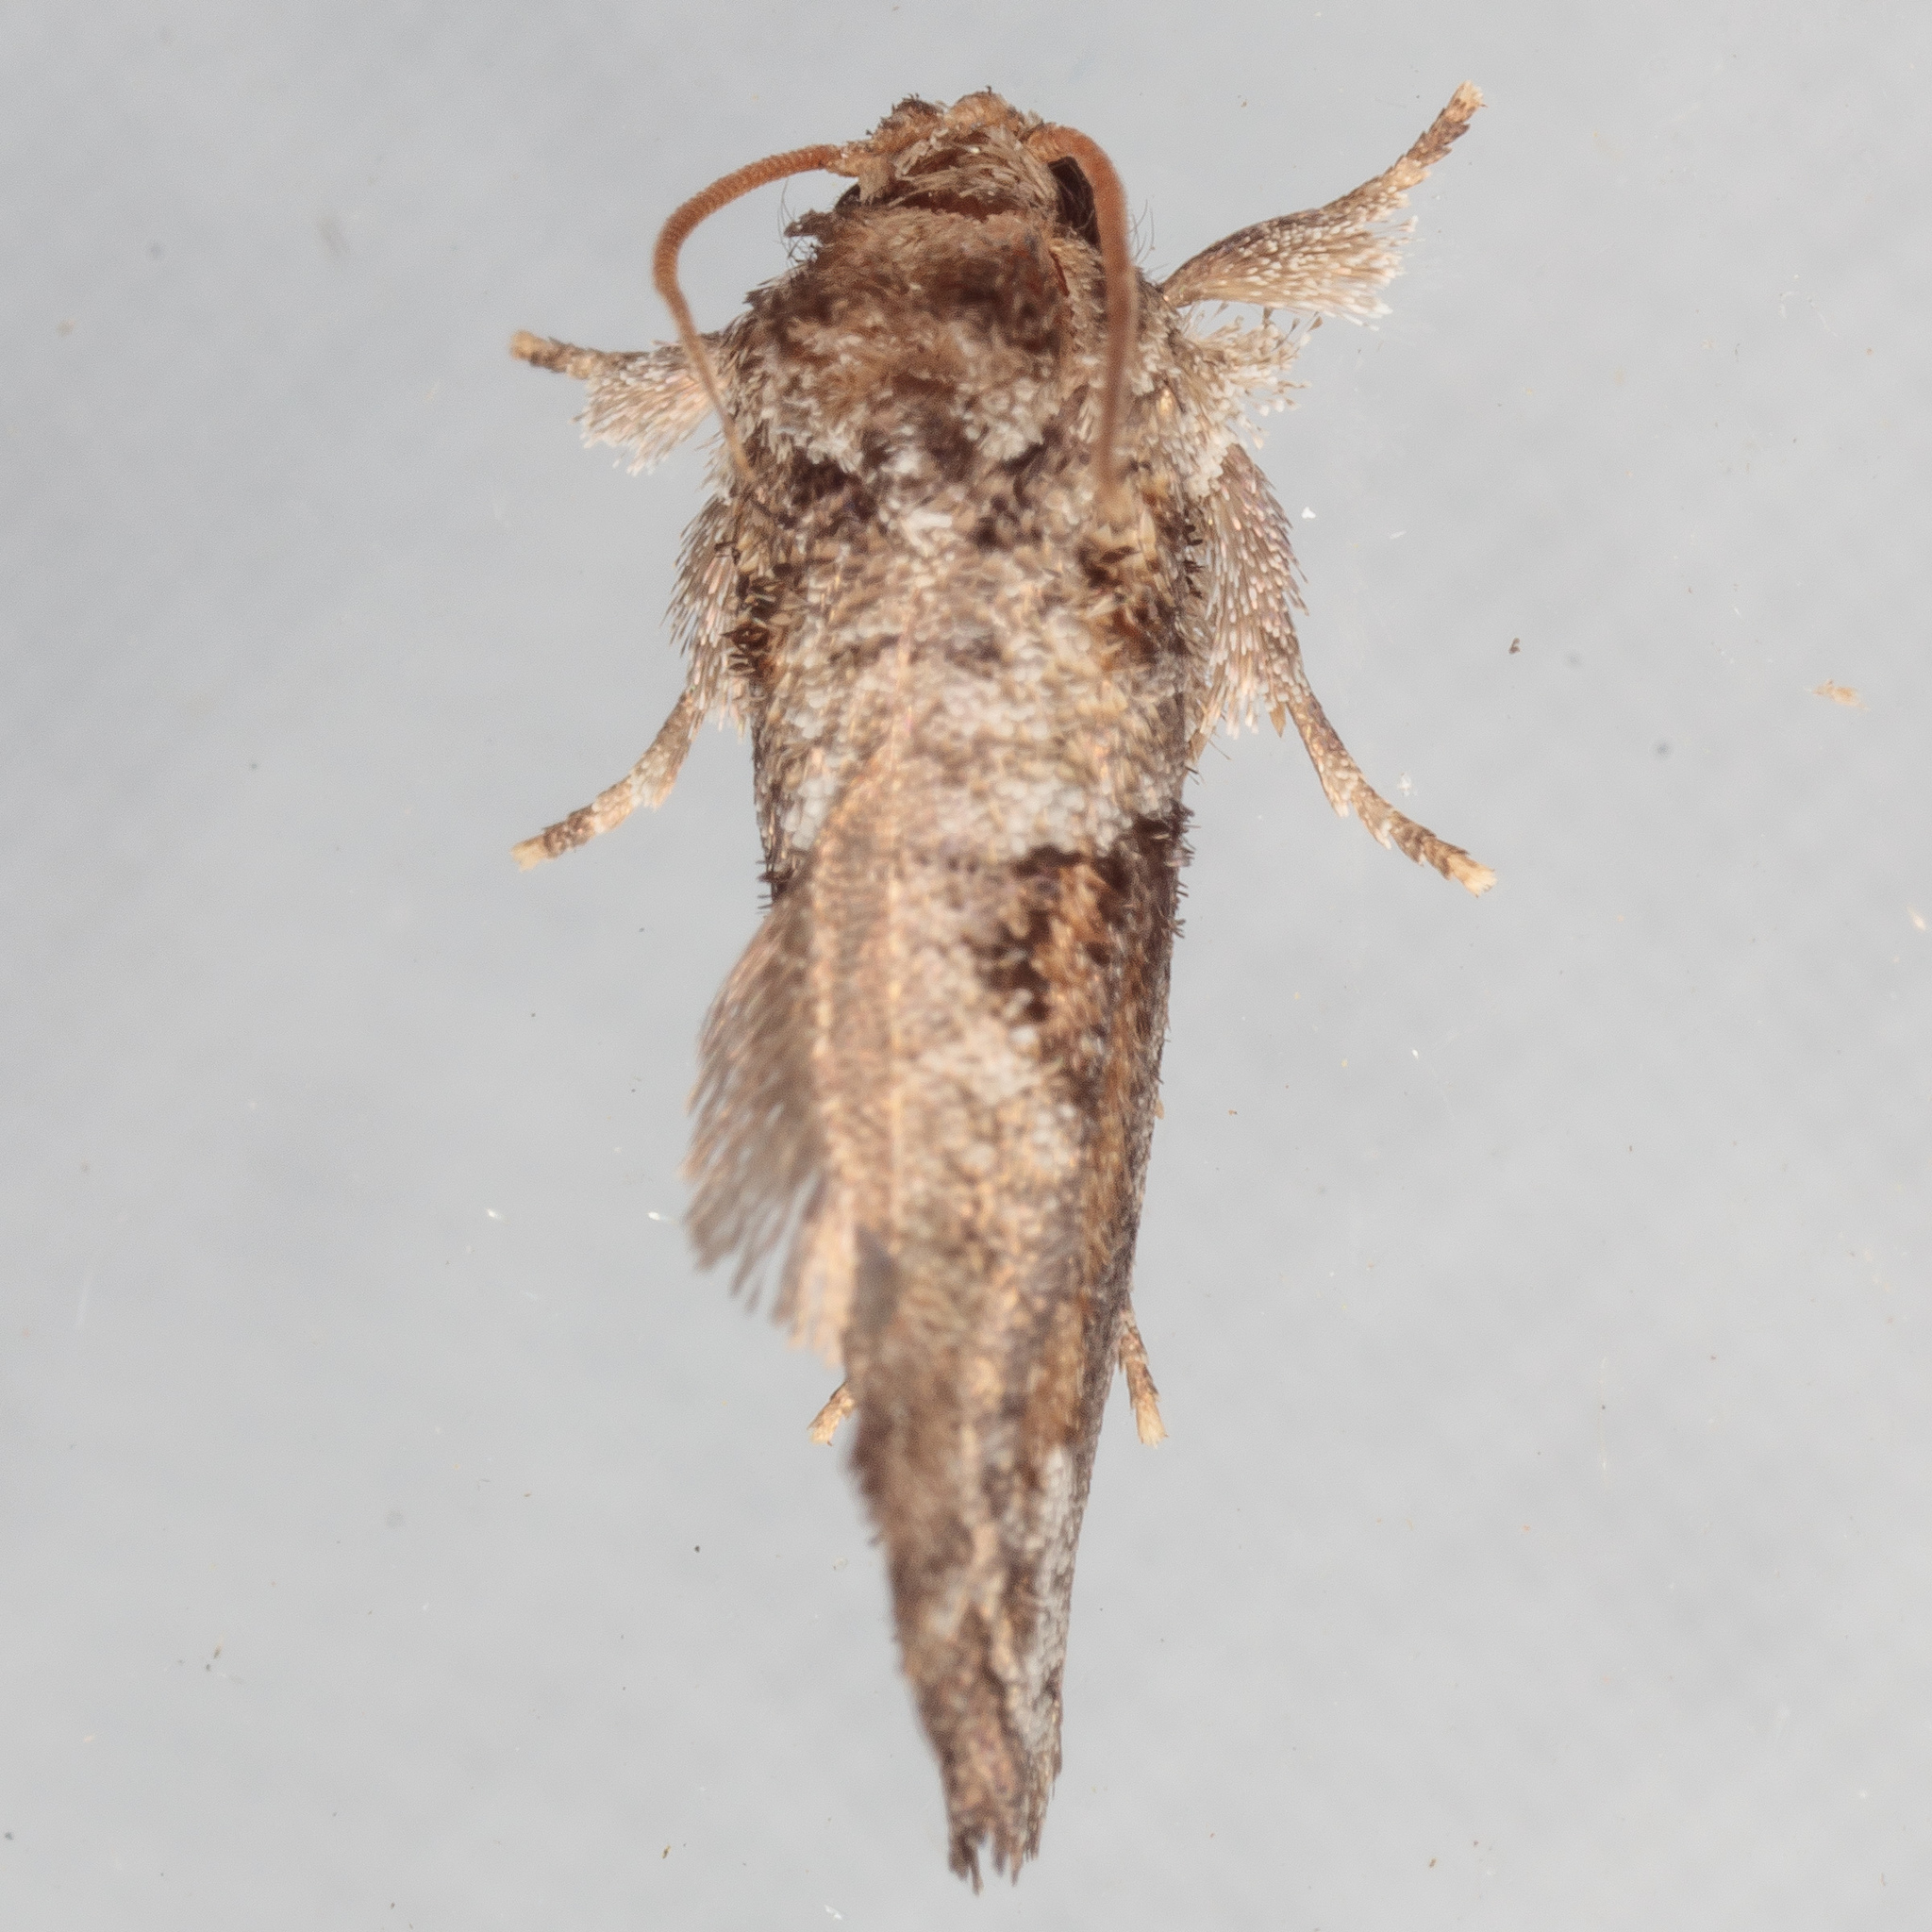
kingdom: Animalia
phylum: Arthropoda
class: Insecta
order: Lepidoptera
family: Tineidae
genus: Acrolophus
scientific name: Acrolophus piger
